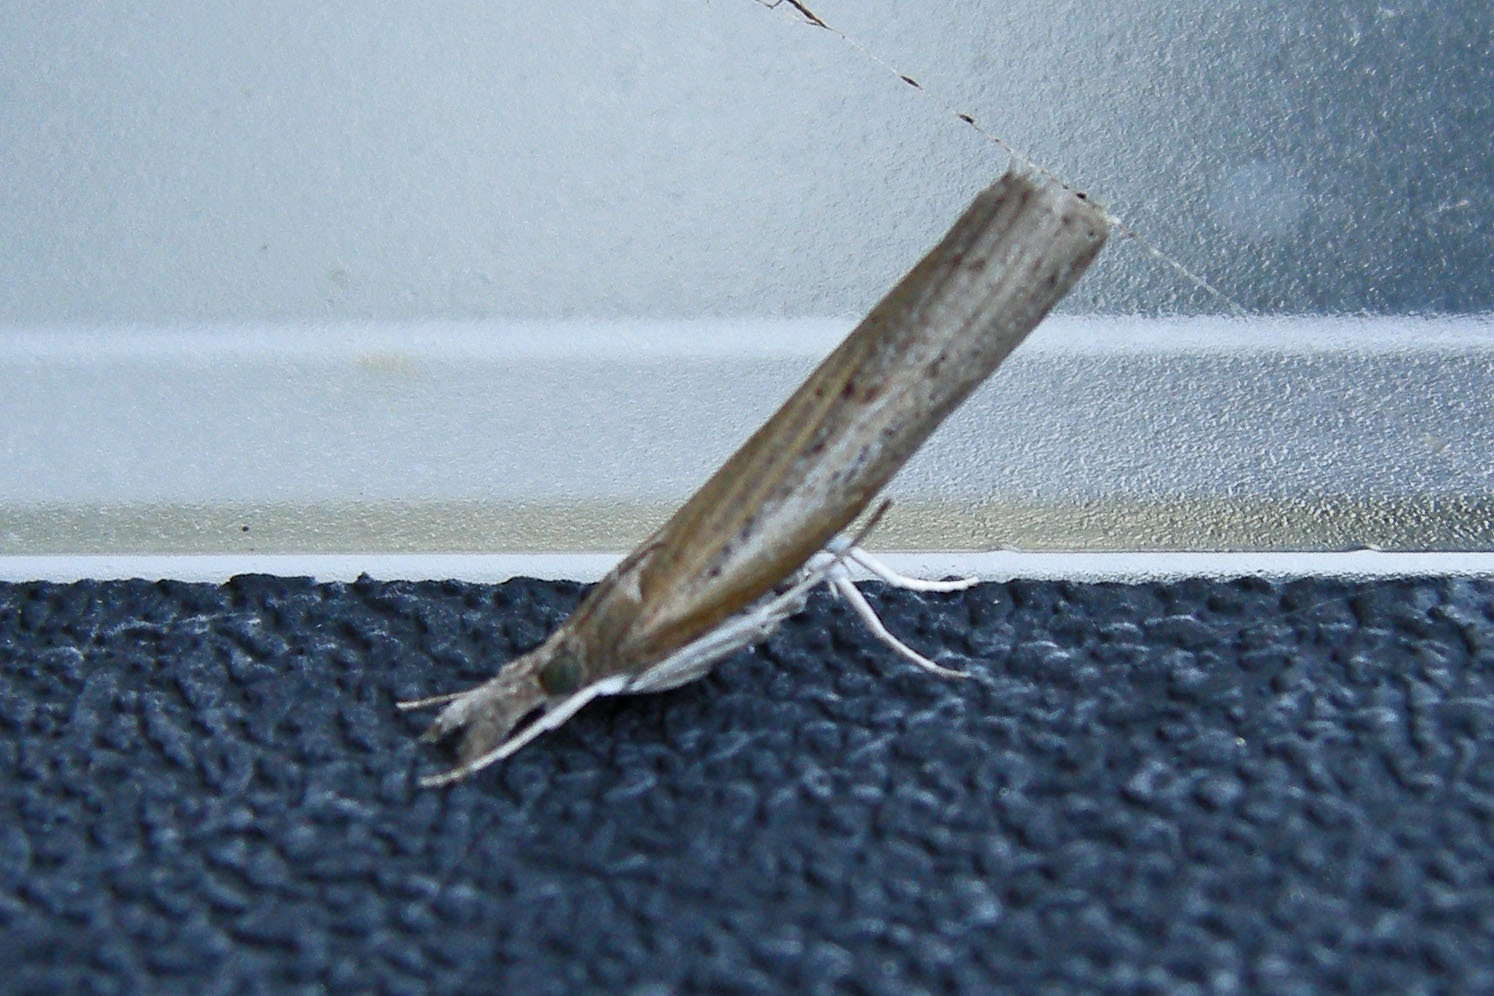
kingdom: Animalia
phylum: Arthropoda
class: Insecta
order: Lepidoptera
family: Crambidae
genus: Fissicrambus
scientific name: Fissicrambus mutabilis
